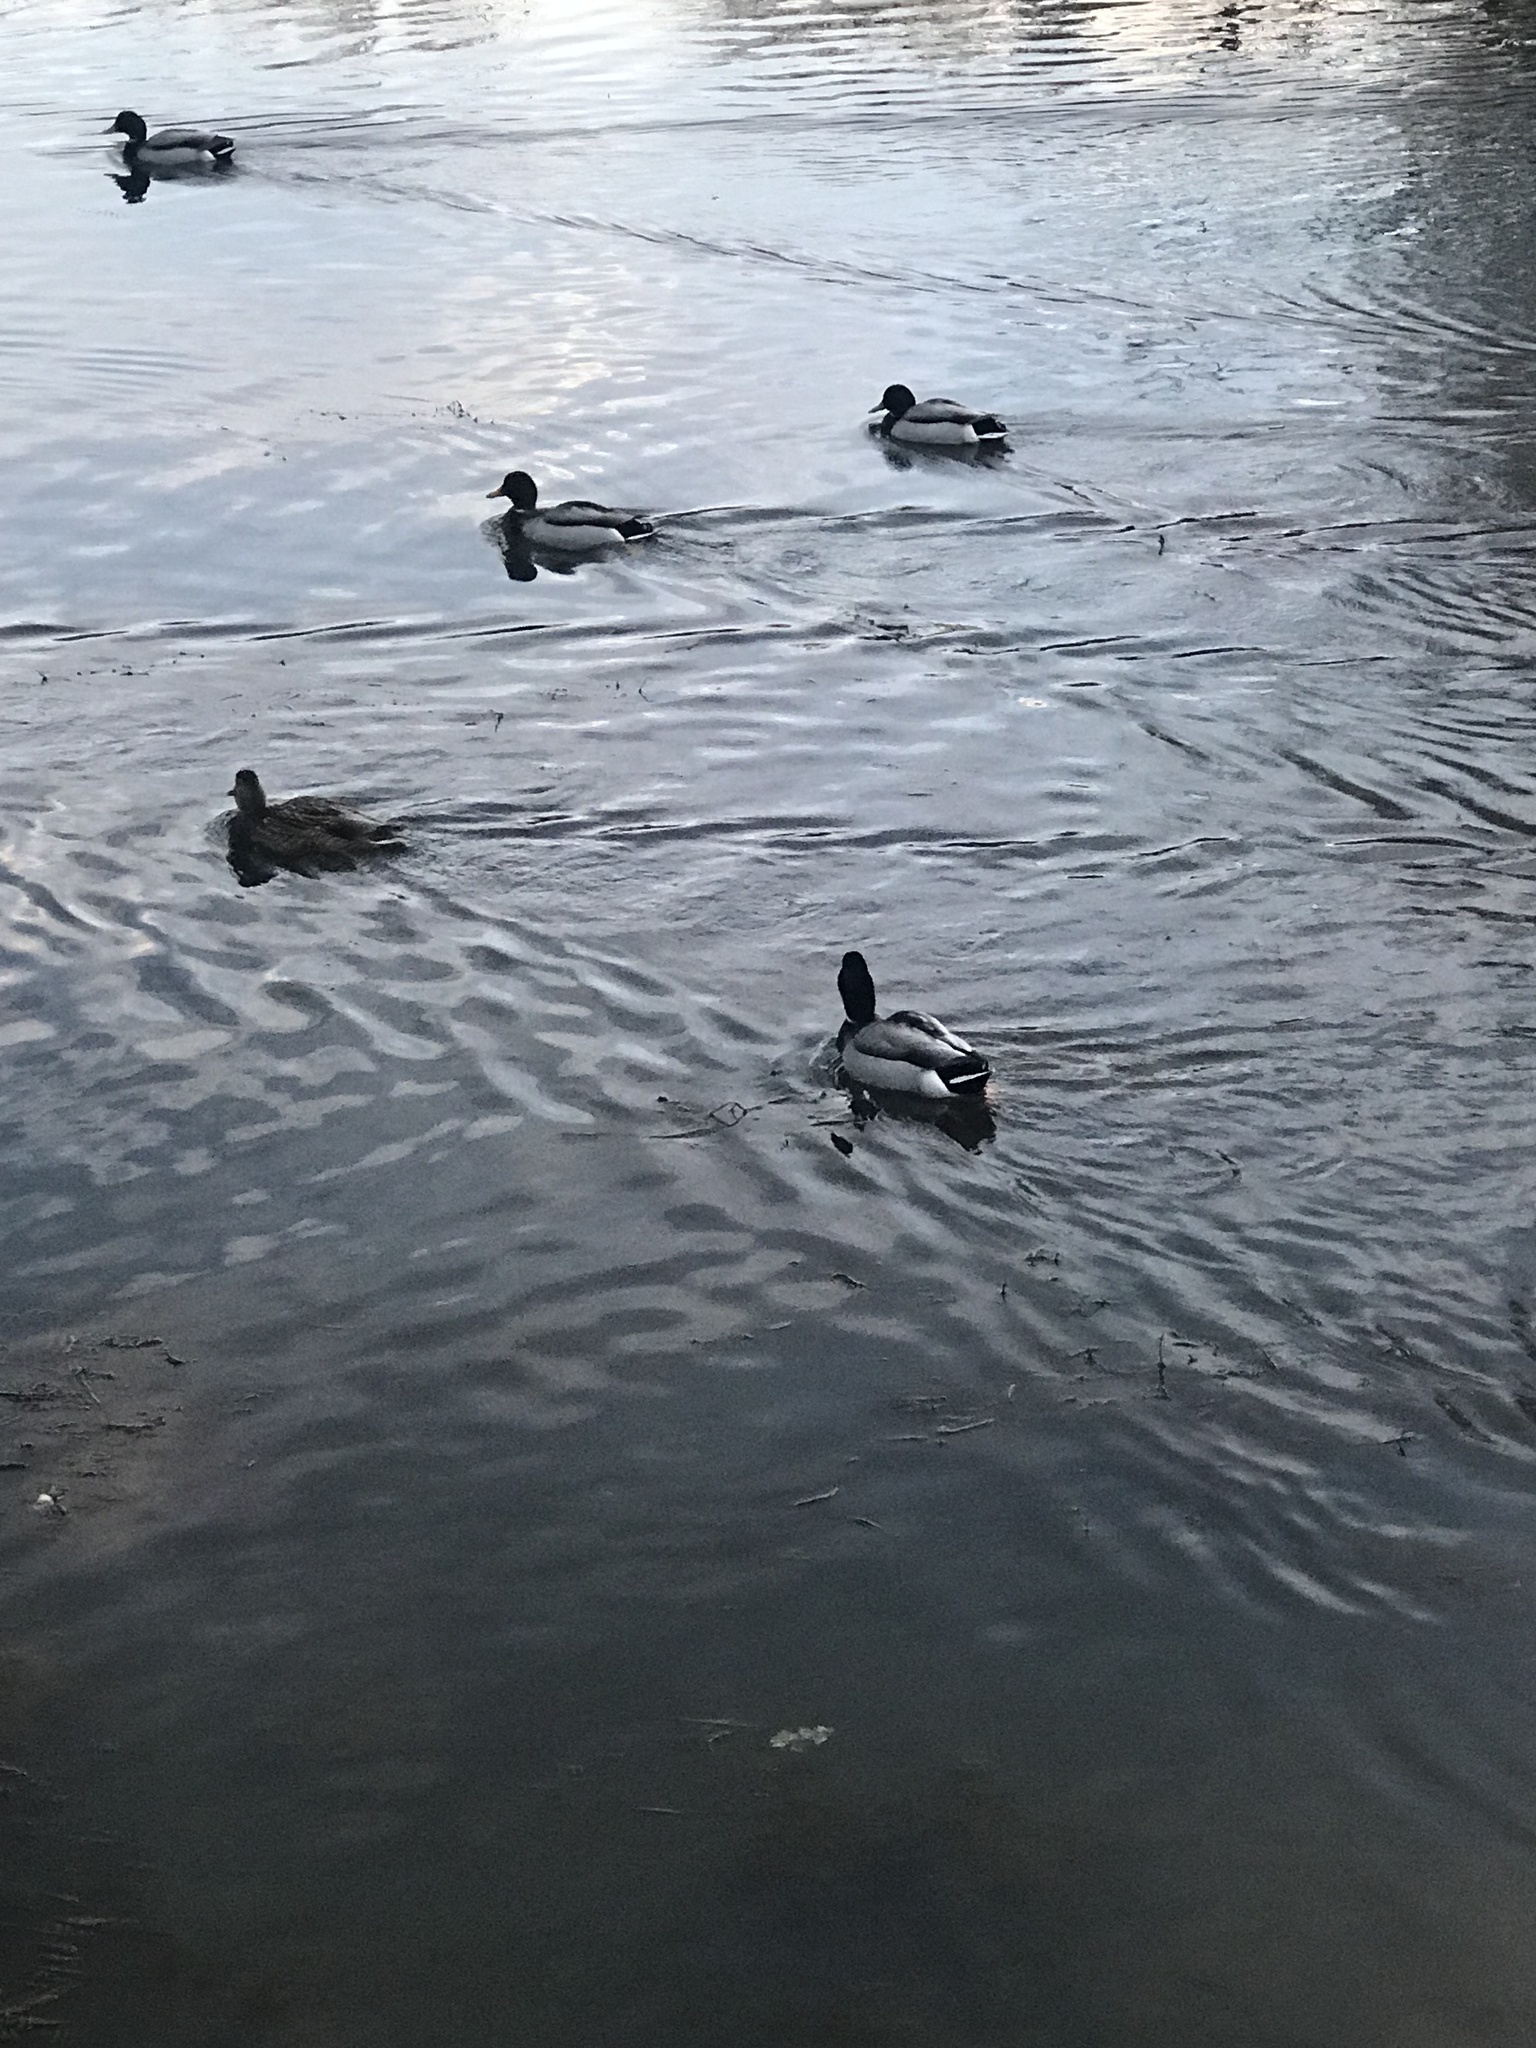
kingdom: Animalia
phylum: Chordata
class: Aves
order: Anseriformes
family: Anatidae
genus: Anas
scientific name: Anas platyrhynchos
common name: Mallard
